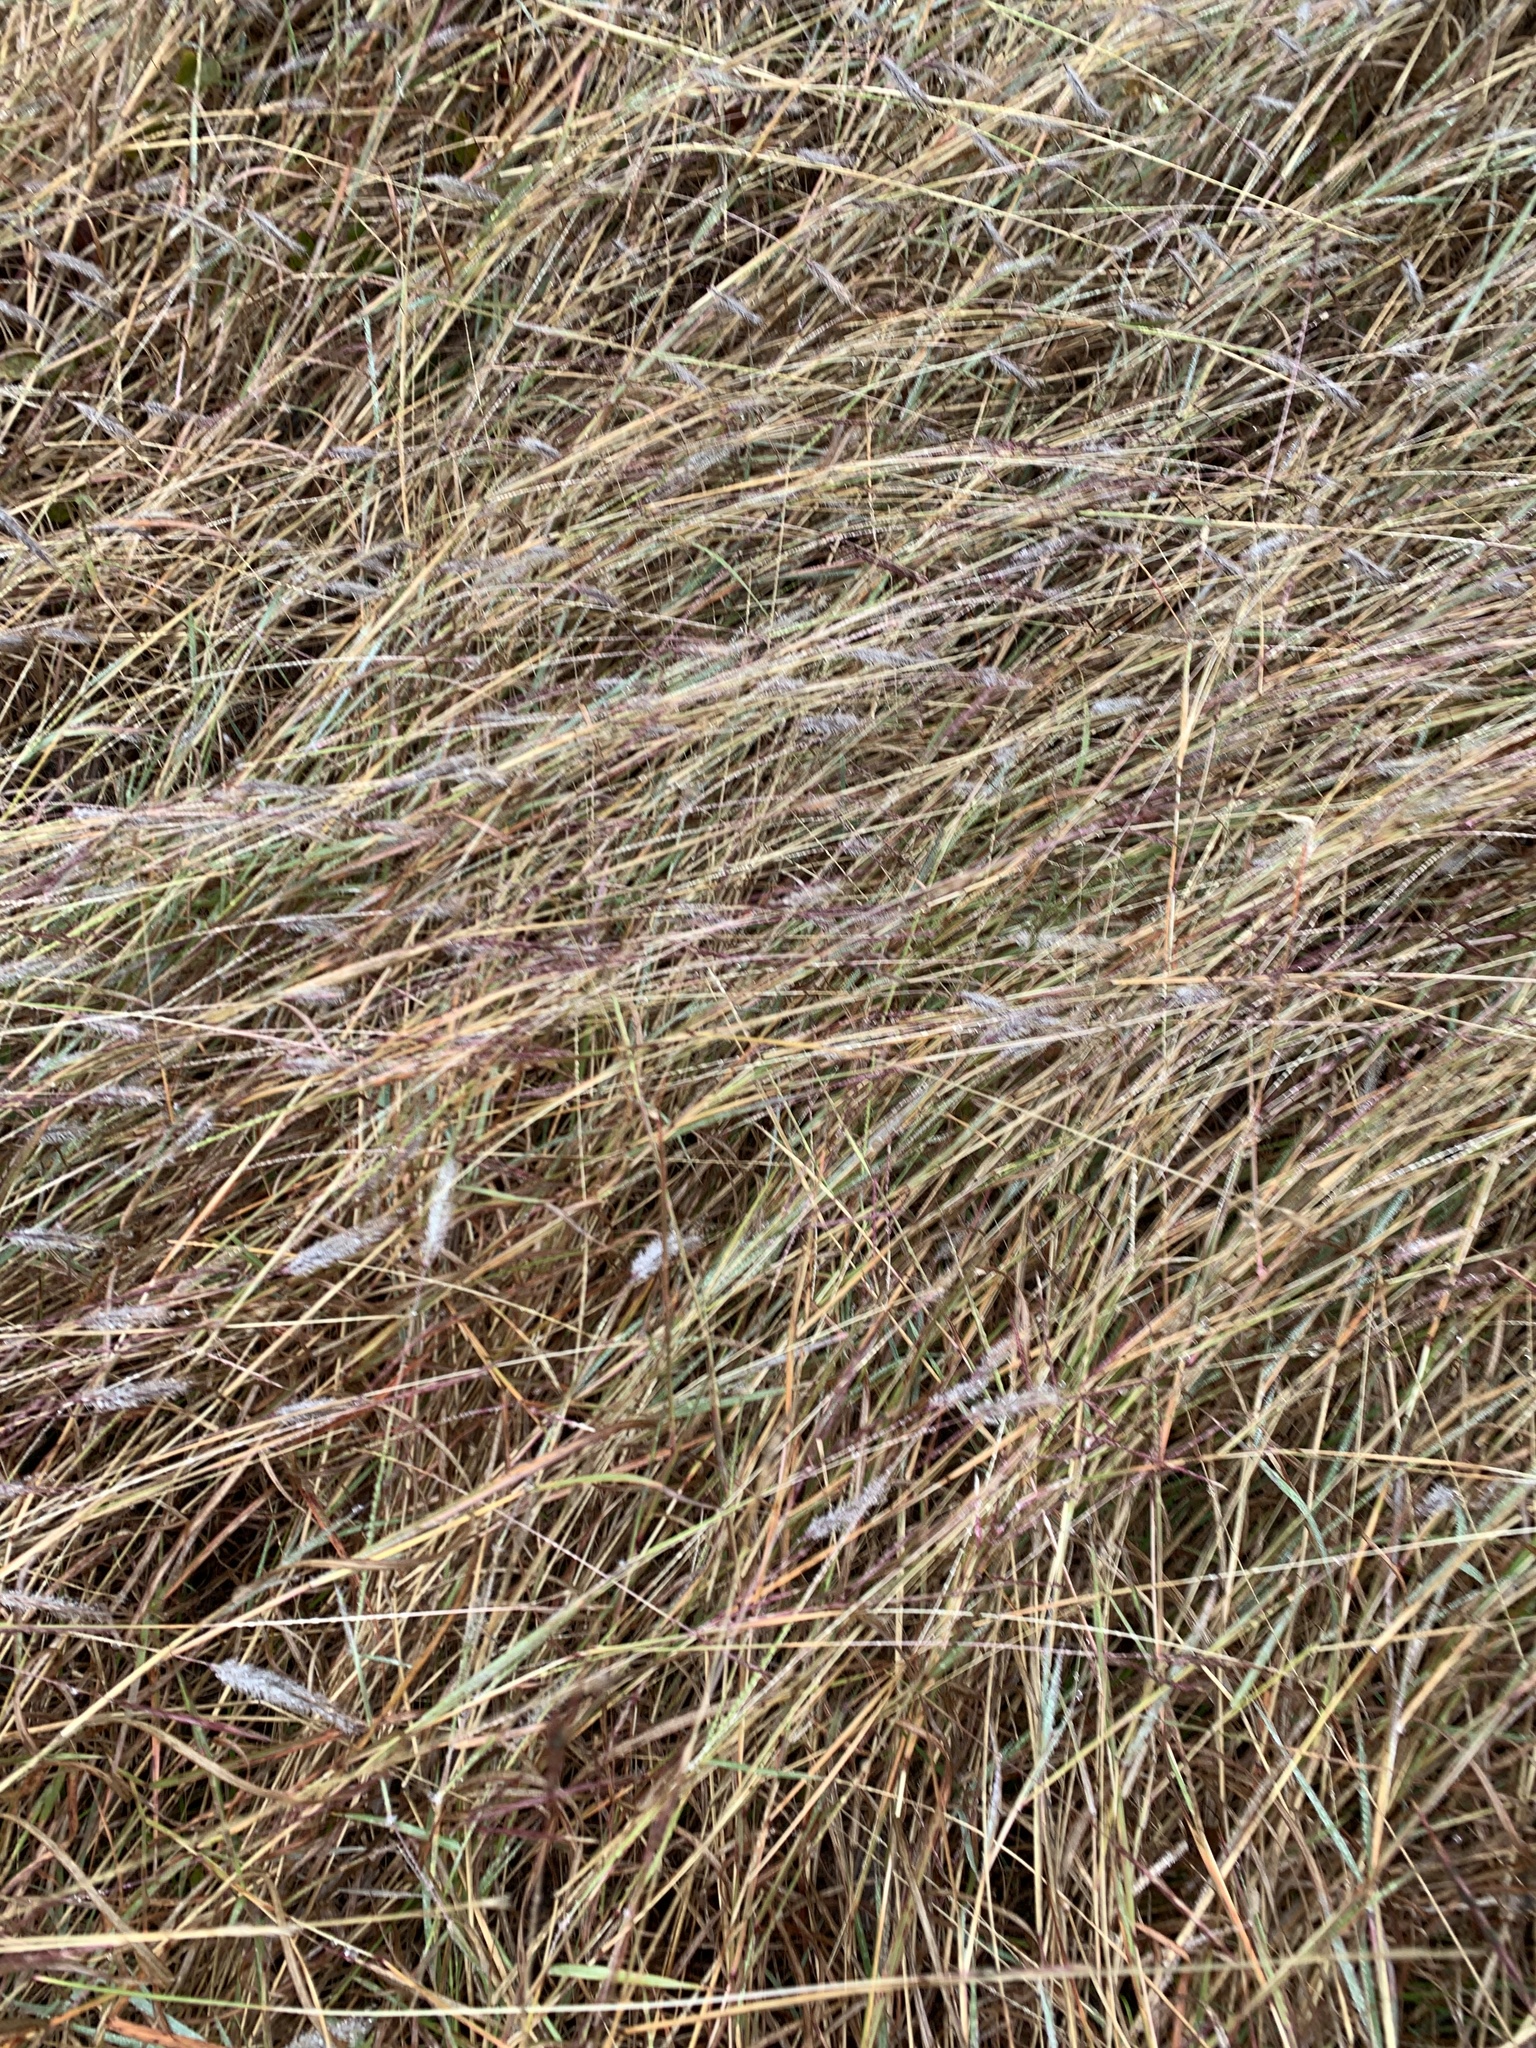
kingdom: Plantae
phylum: Tracheophyta
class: Liliopsida
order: Poales
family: Poaceae
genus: Dichanthium
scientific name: Dichanthium sericeum
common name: Silky bluestem
